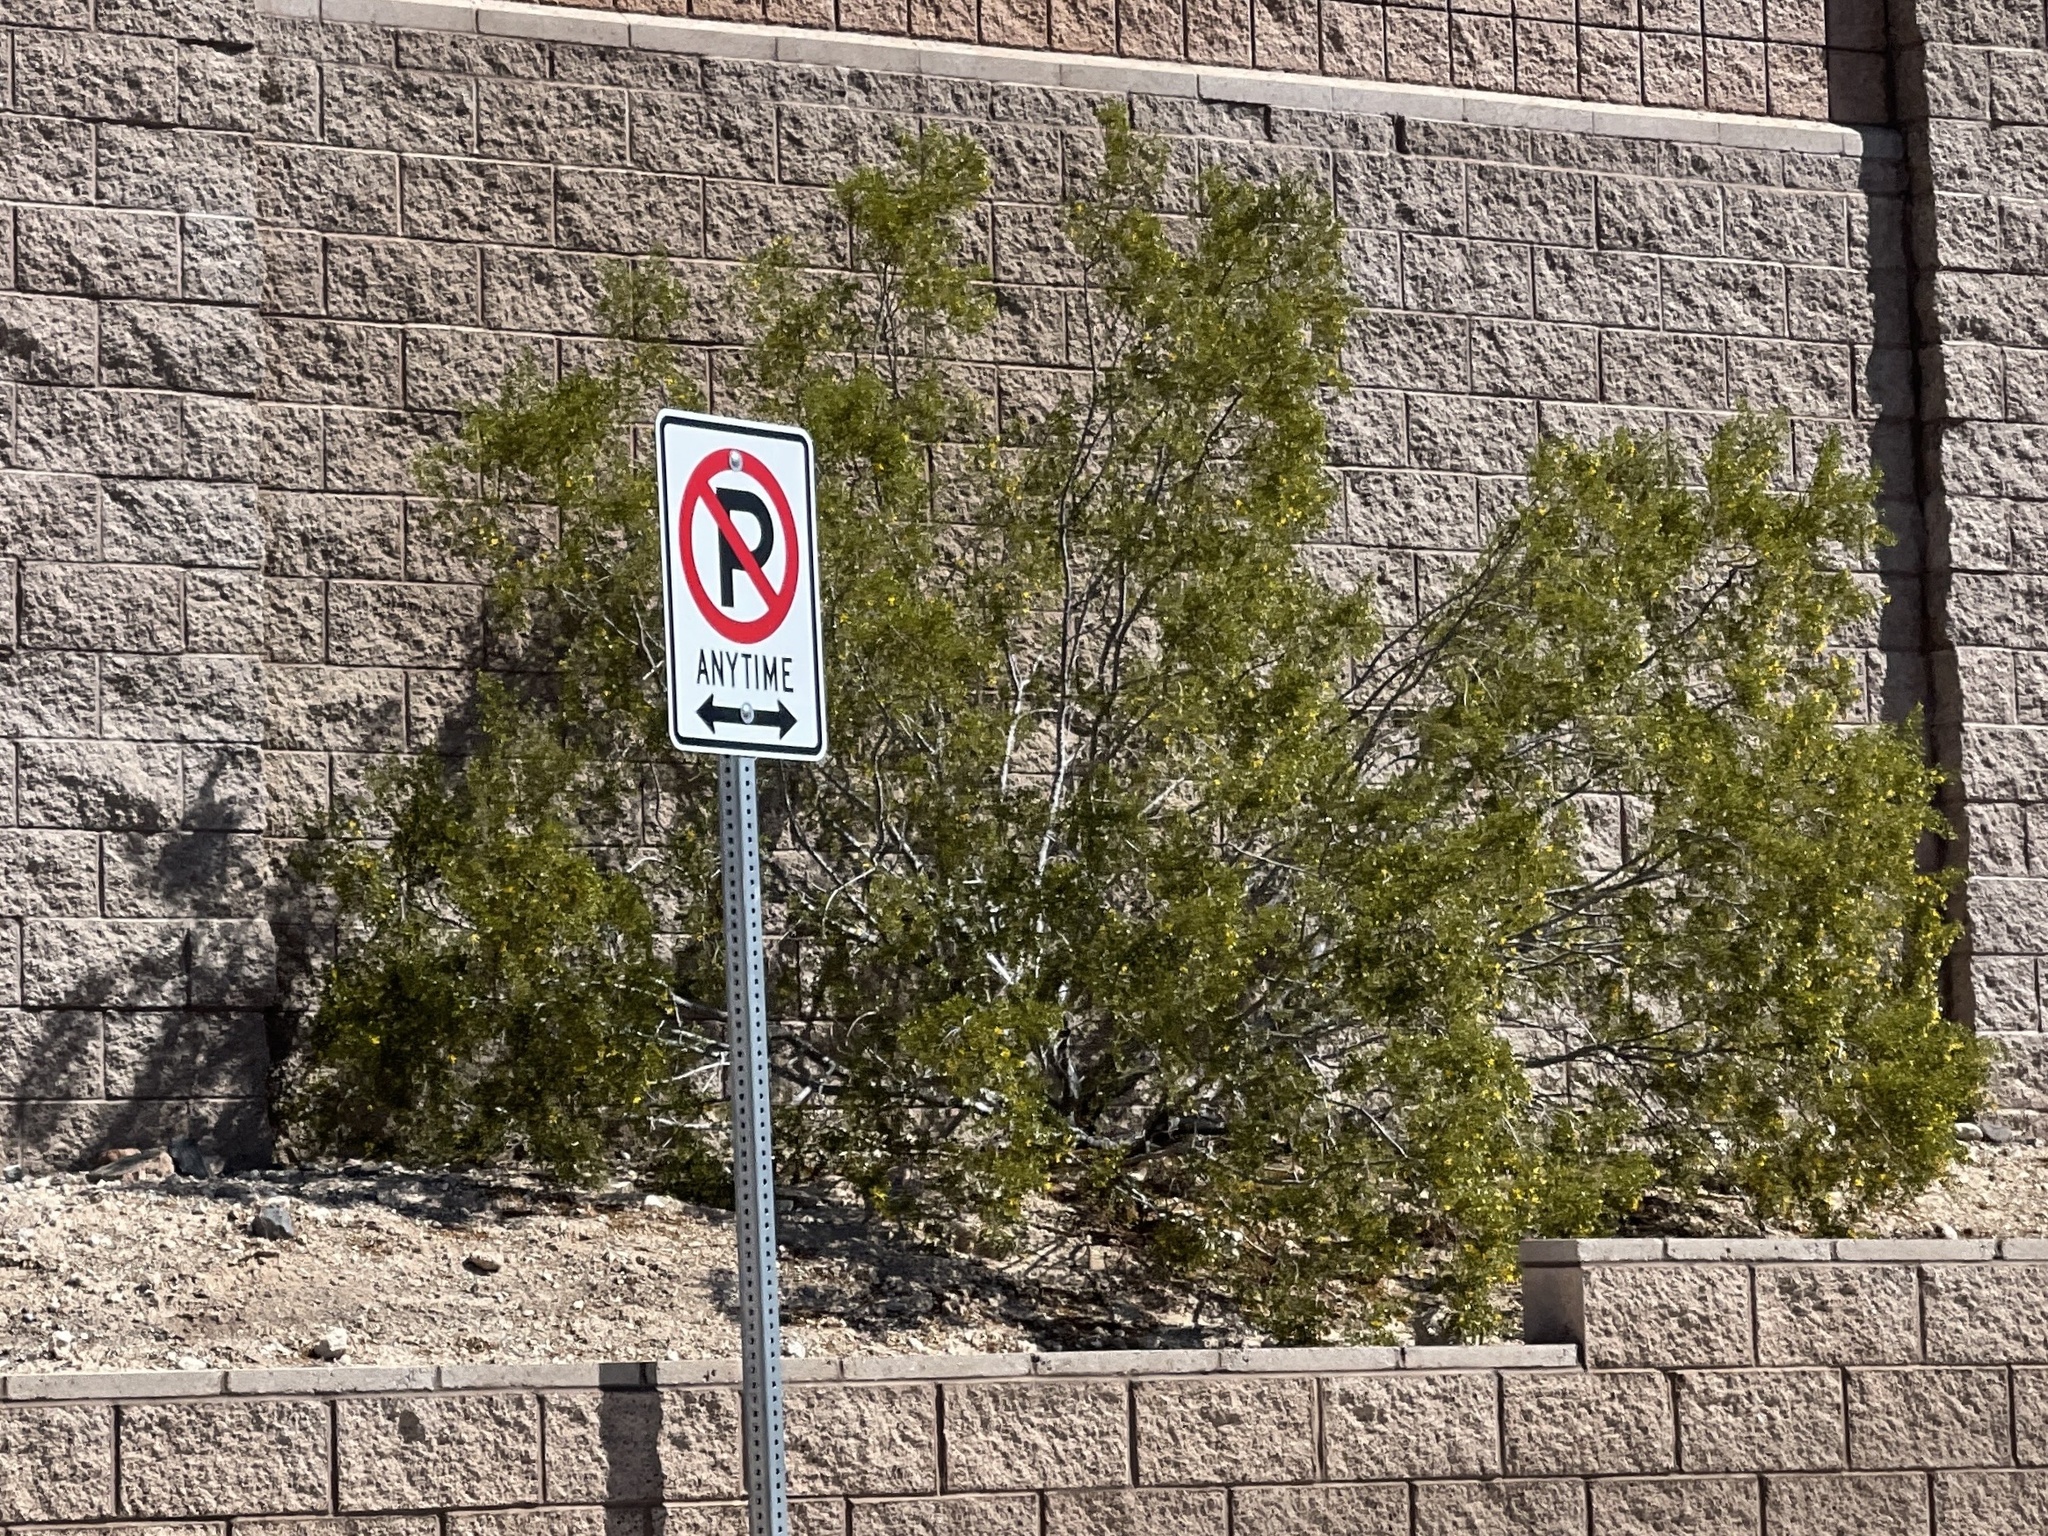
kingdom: Plantae
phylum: Tracheophyta
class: Magnoliopsida
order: Zygophyllales
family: Zygophyllaceae
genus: Larrea
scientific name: Larrea tridentata
